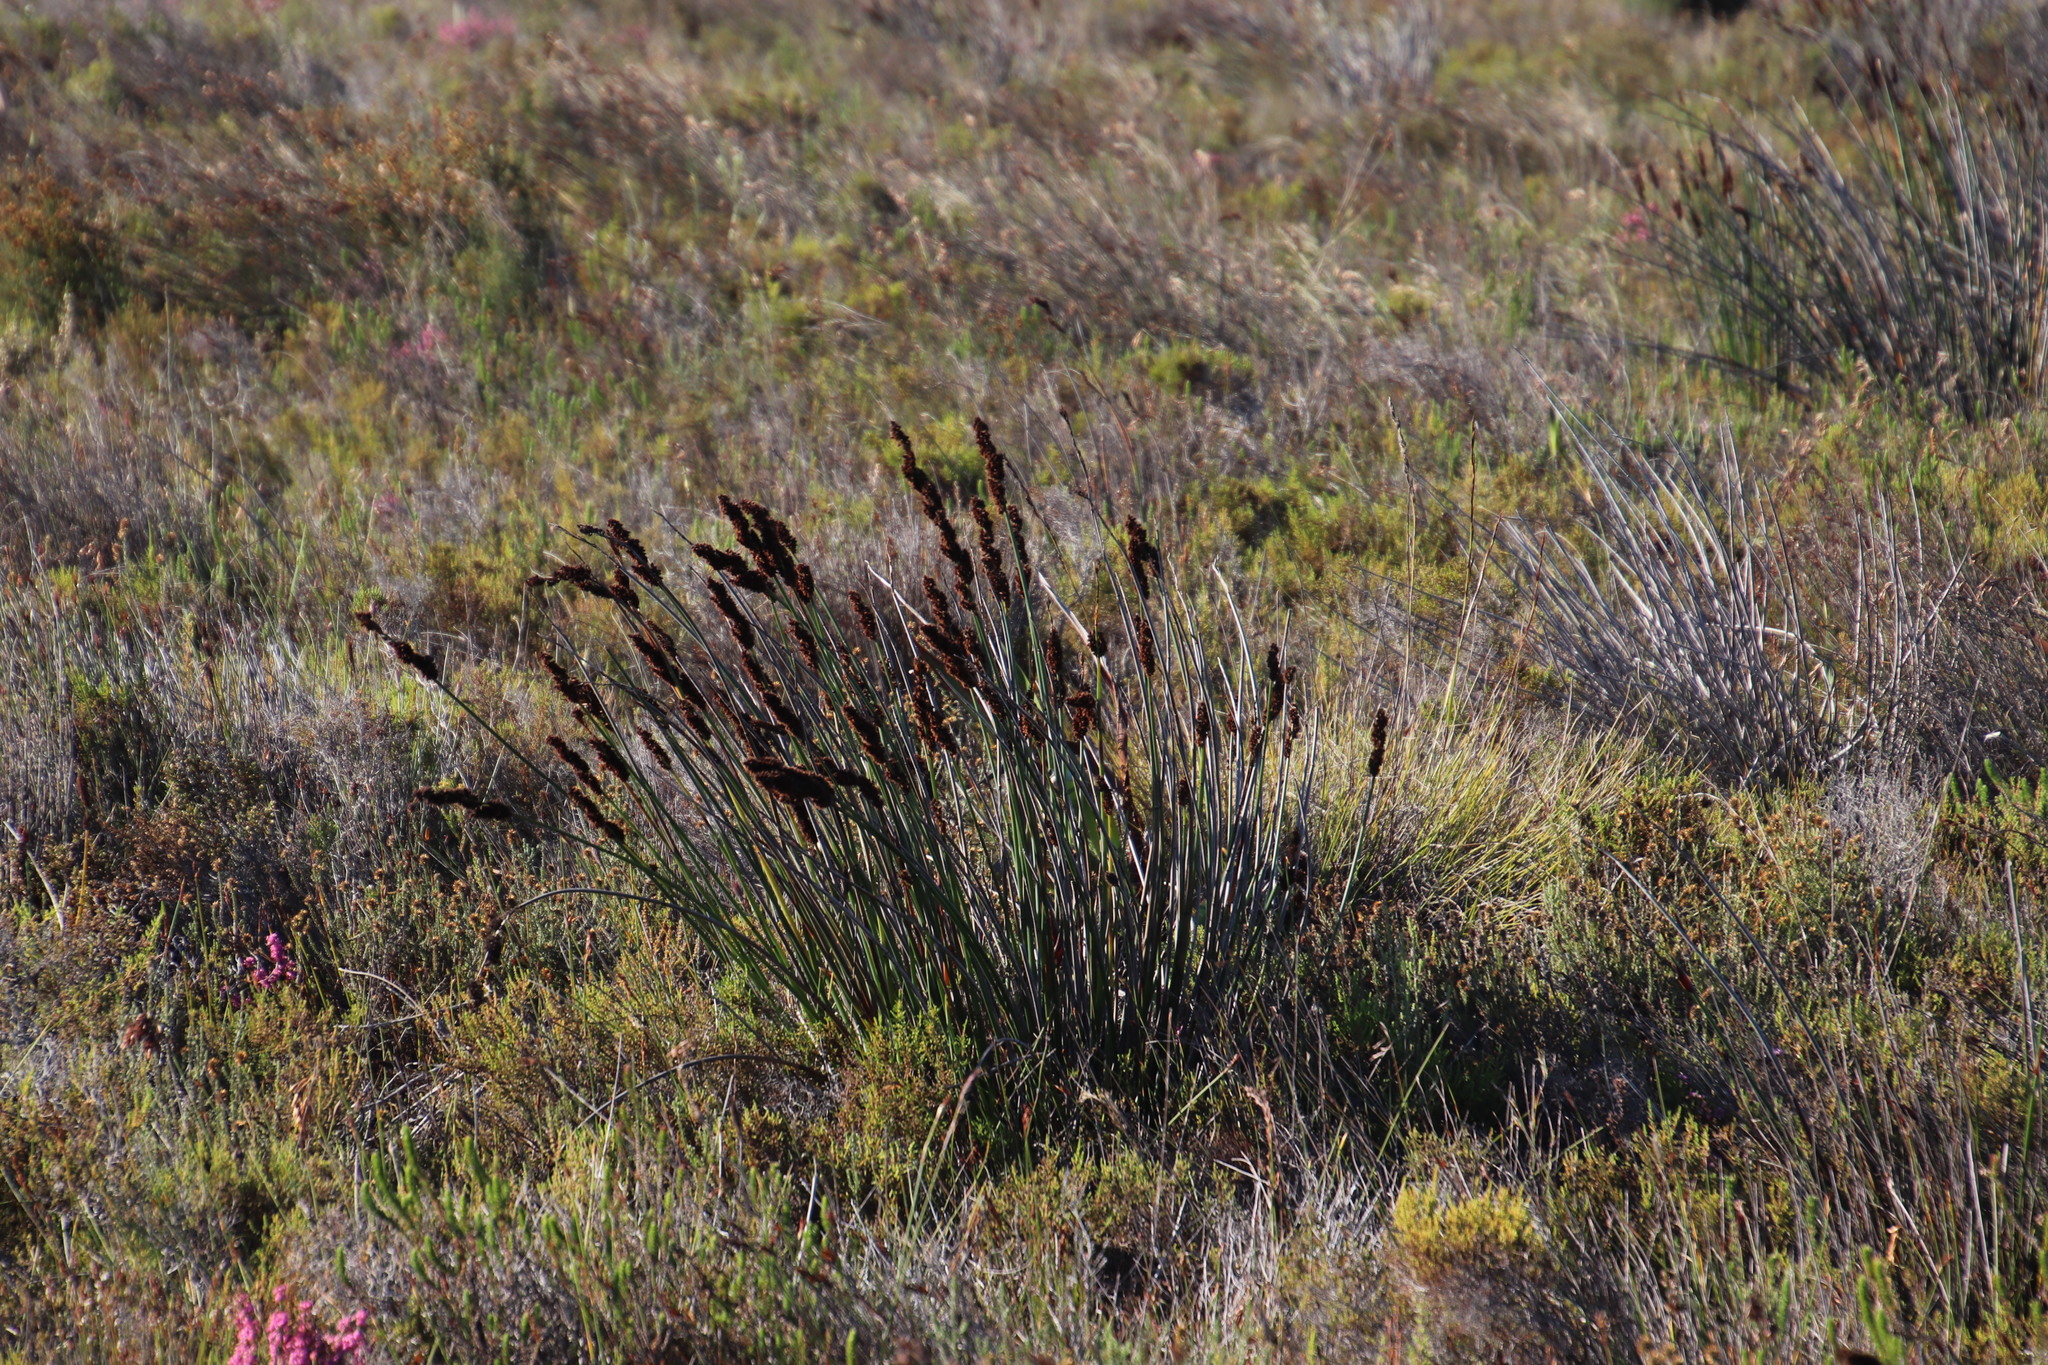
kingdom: Plantae
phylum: Tracheophyta
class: Liliopsida
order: Poales
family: Restionaceae
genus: Elegia
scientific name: Elegia cuspidata
